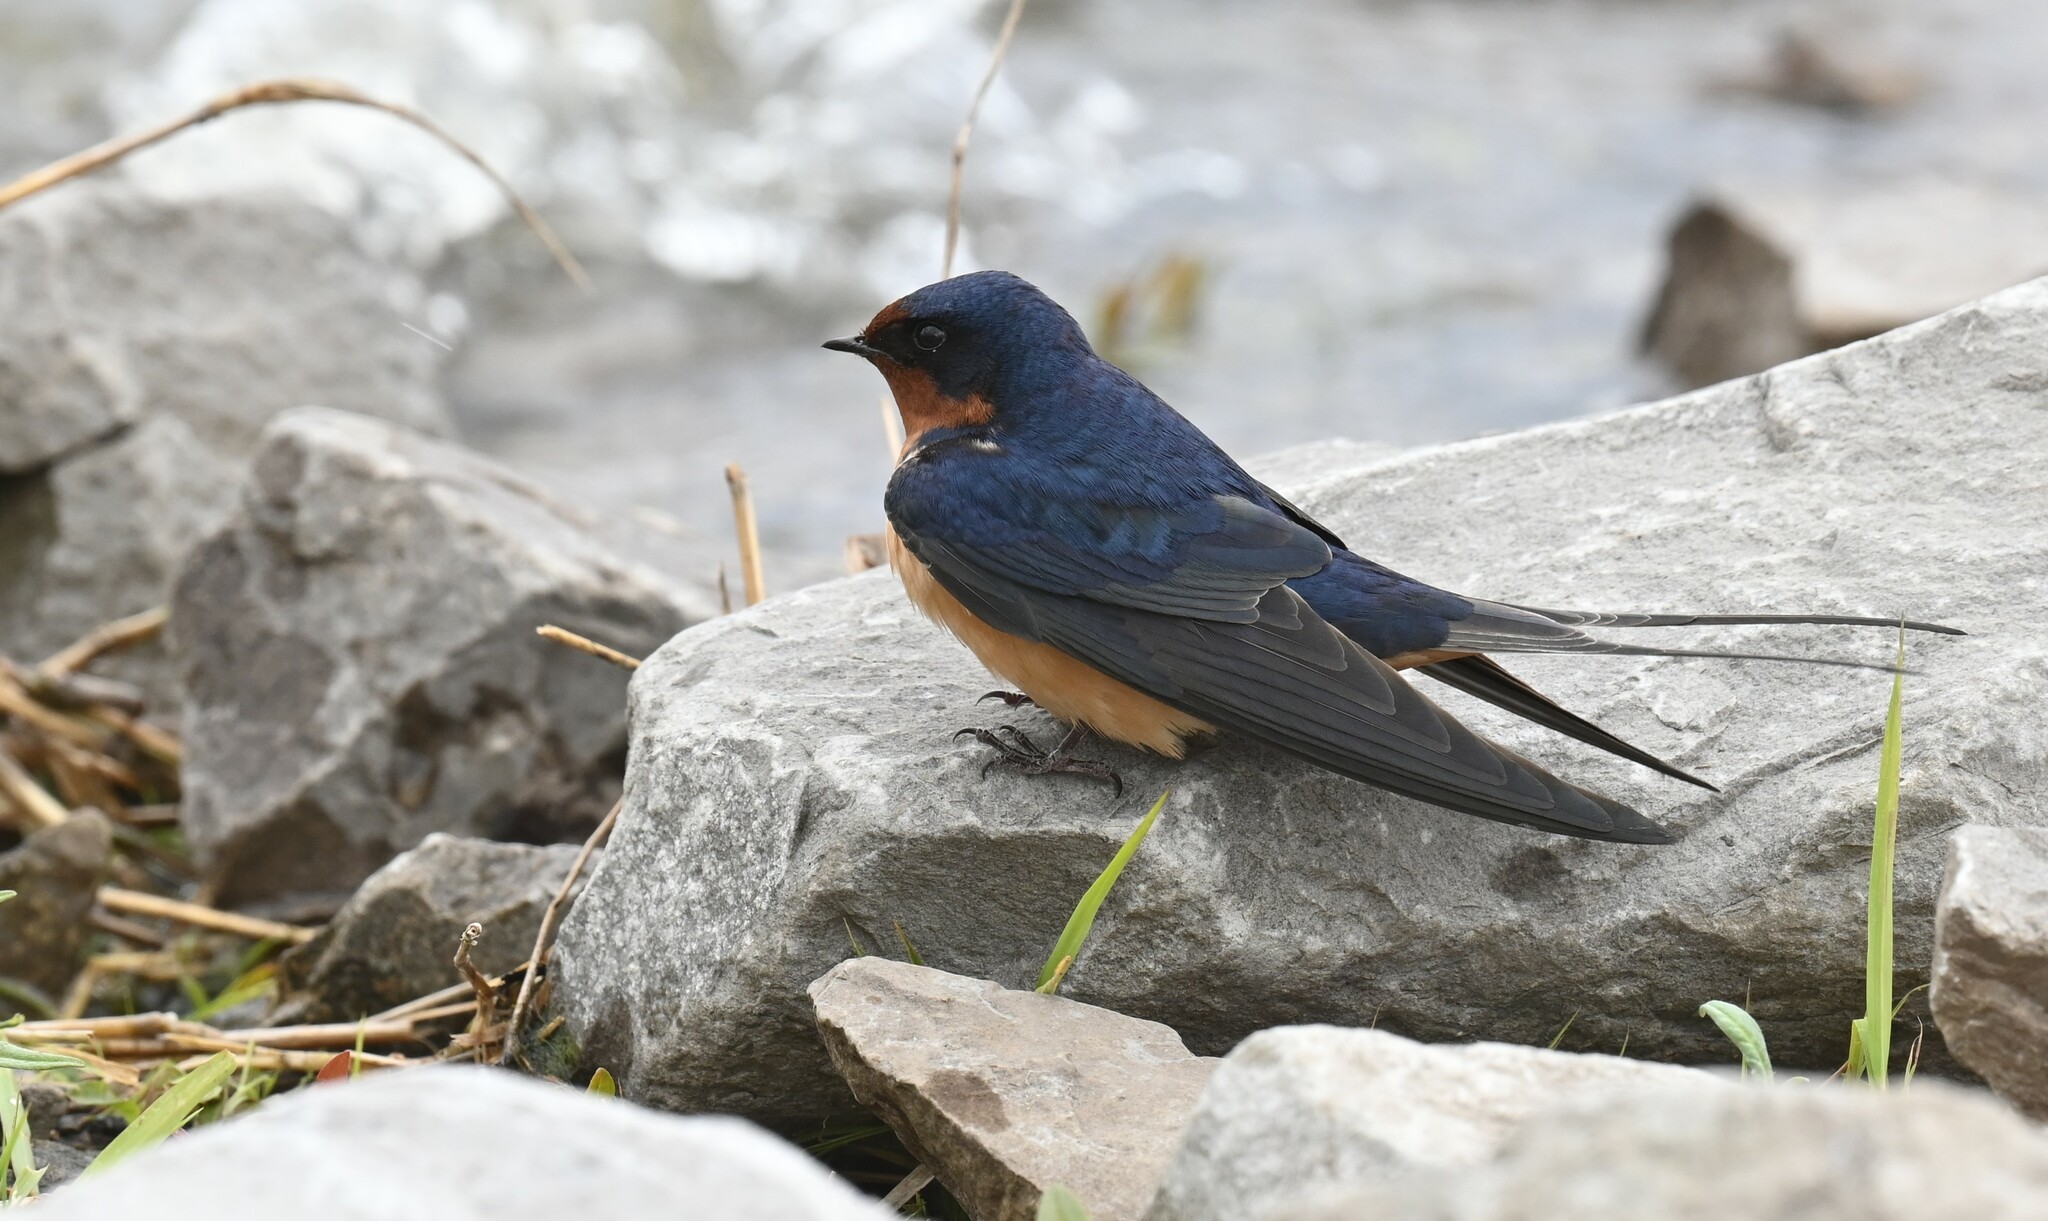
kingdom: Animalia
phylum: Chordata
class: Aves
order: Passeriformes
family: Hirundinidae
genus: Hirundo
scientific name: Hirundo rustica
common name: Barn swallow
